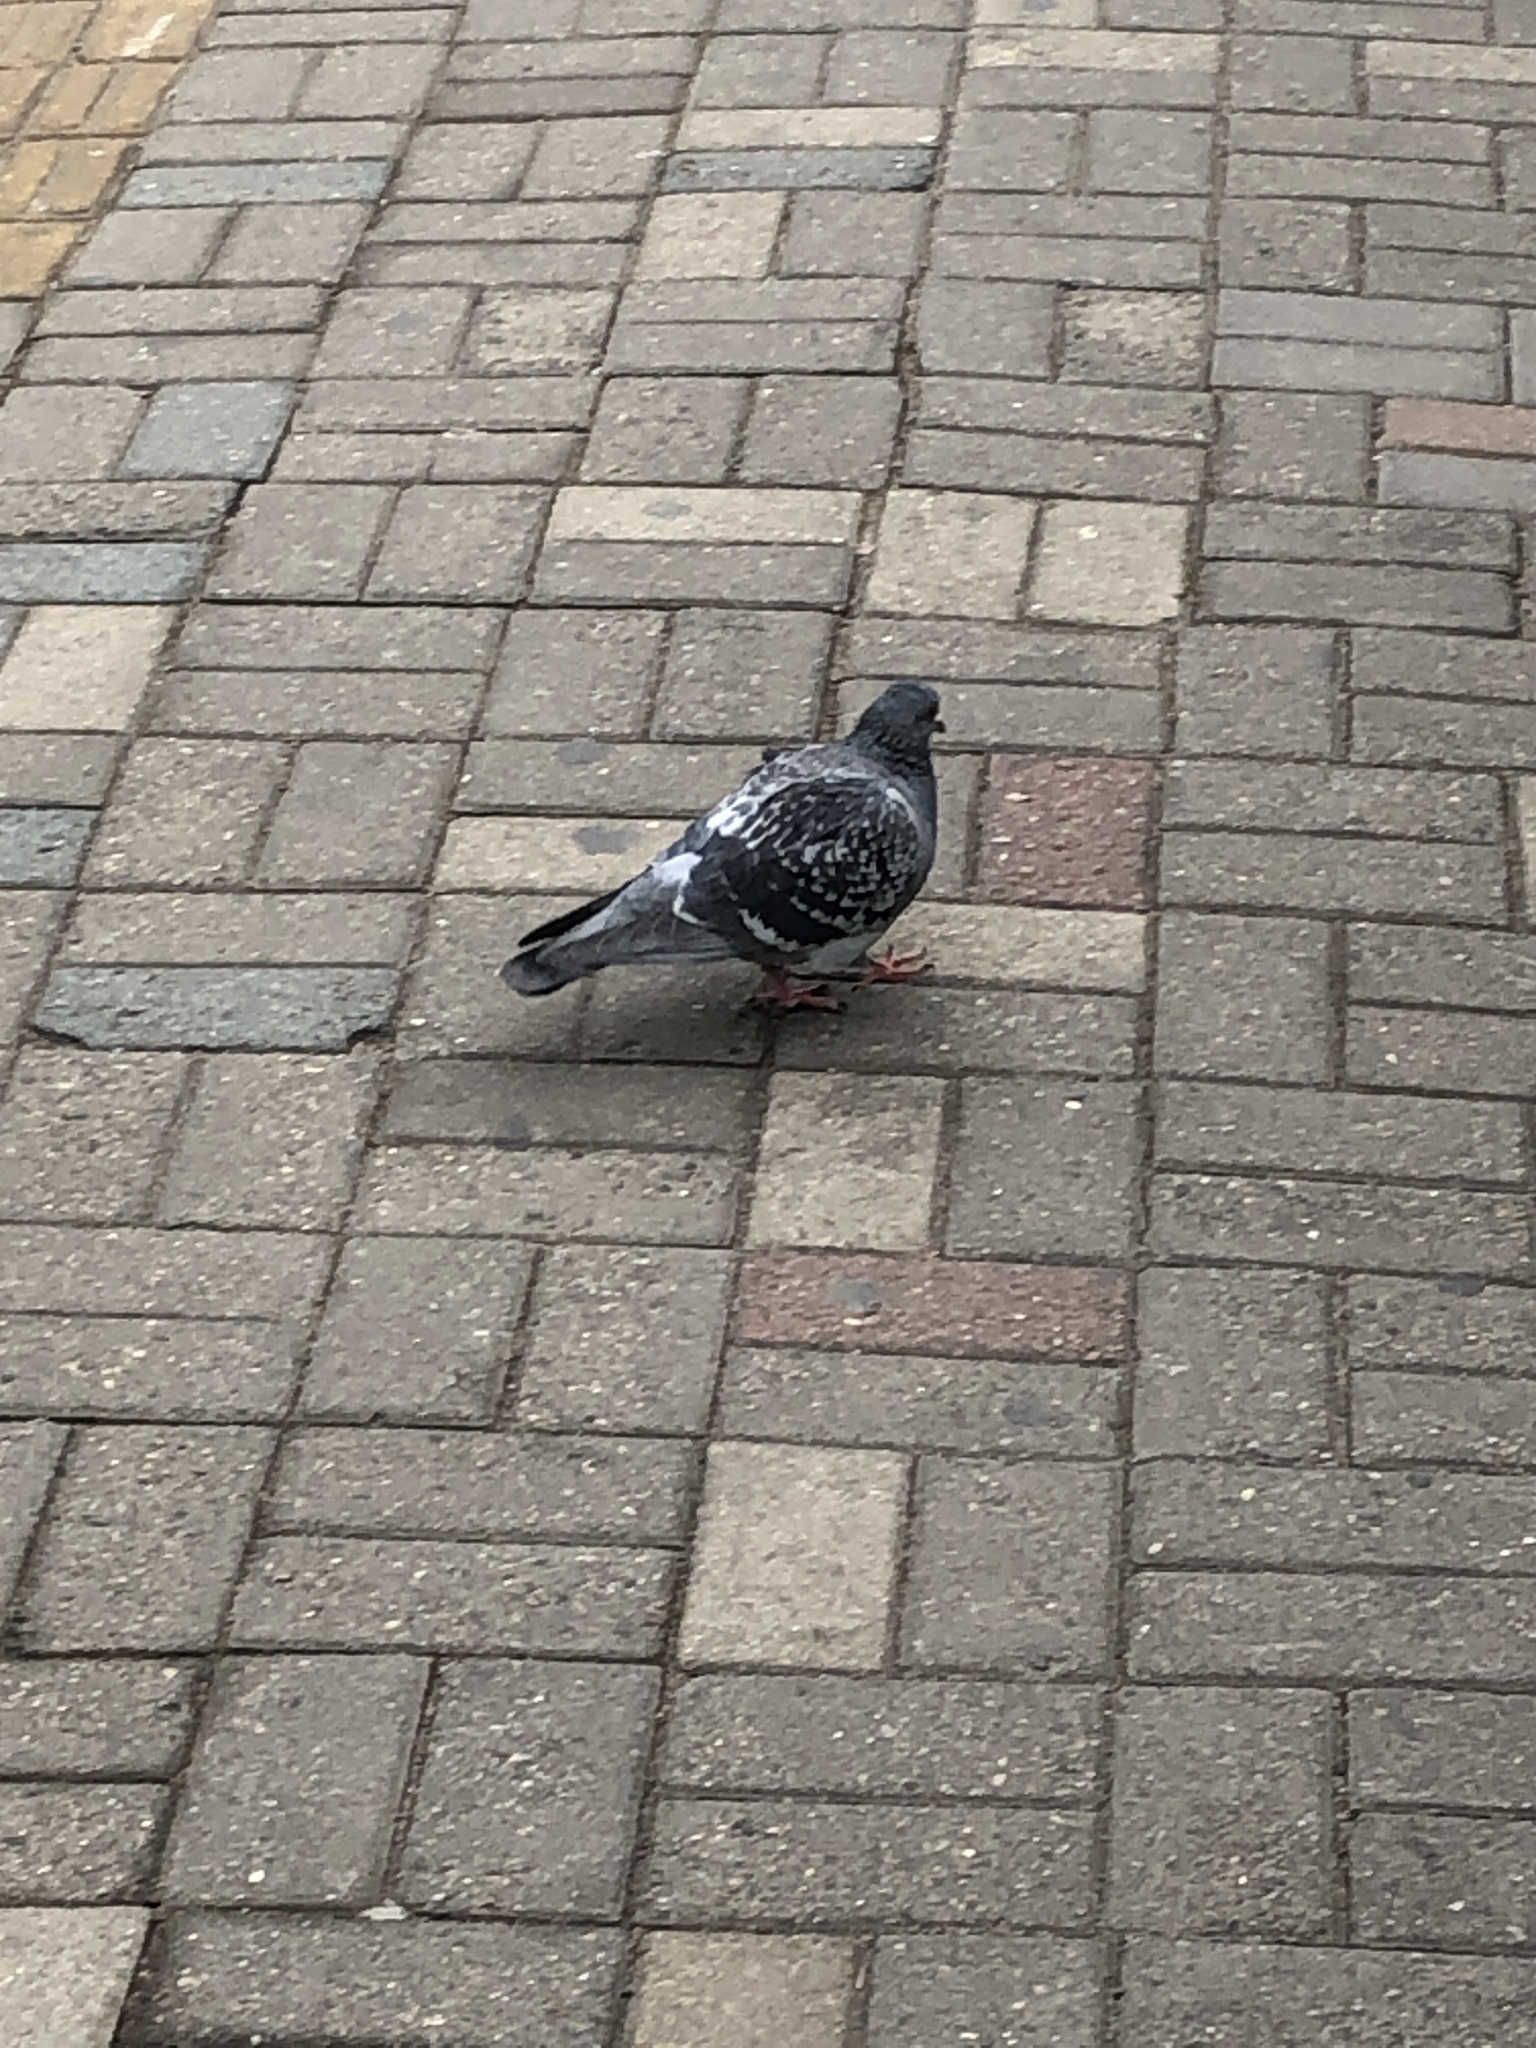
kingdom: Animalia
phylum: Chordata
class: Aves
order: Columbiformes
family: Columbidae
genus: Columba
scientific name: Columba livia
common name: Rock pigeon
